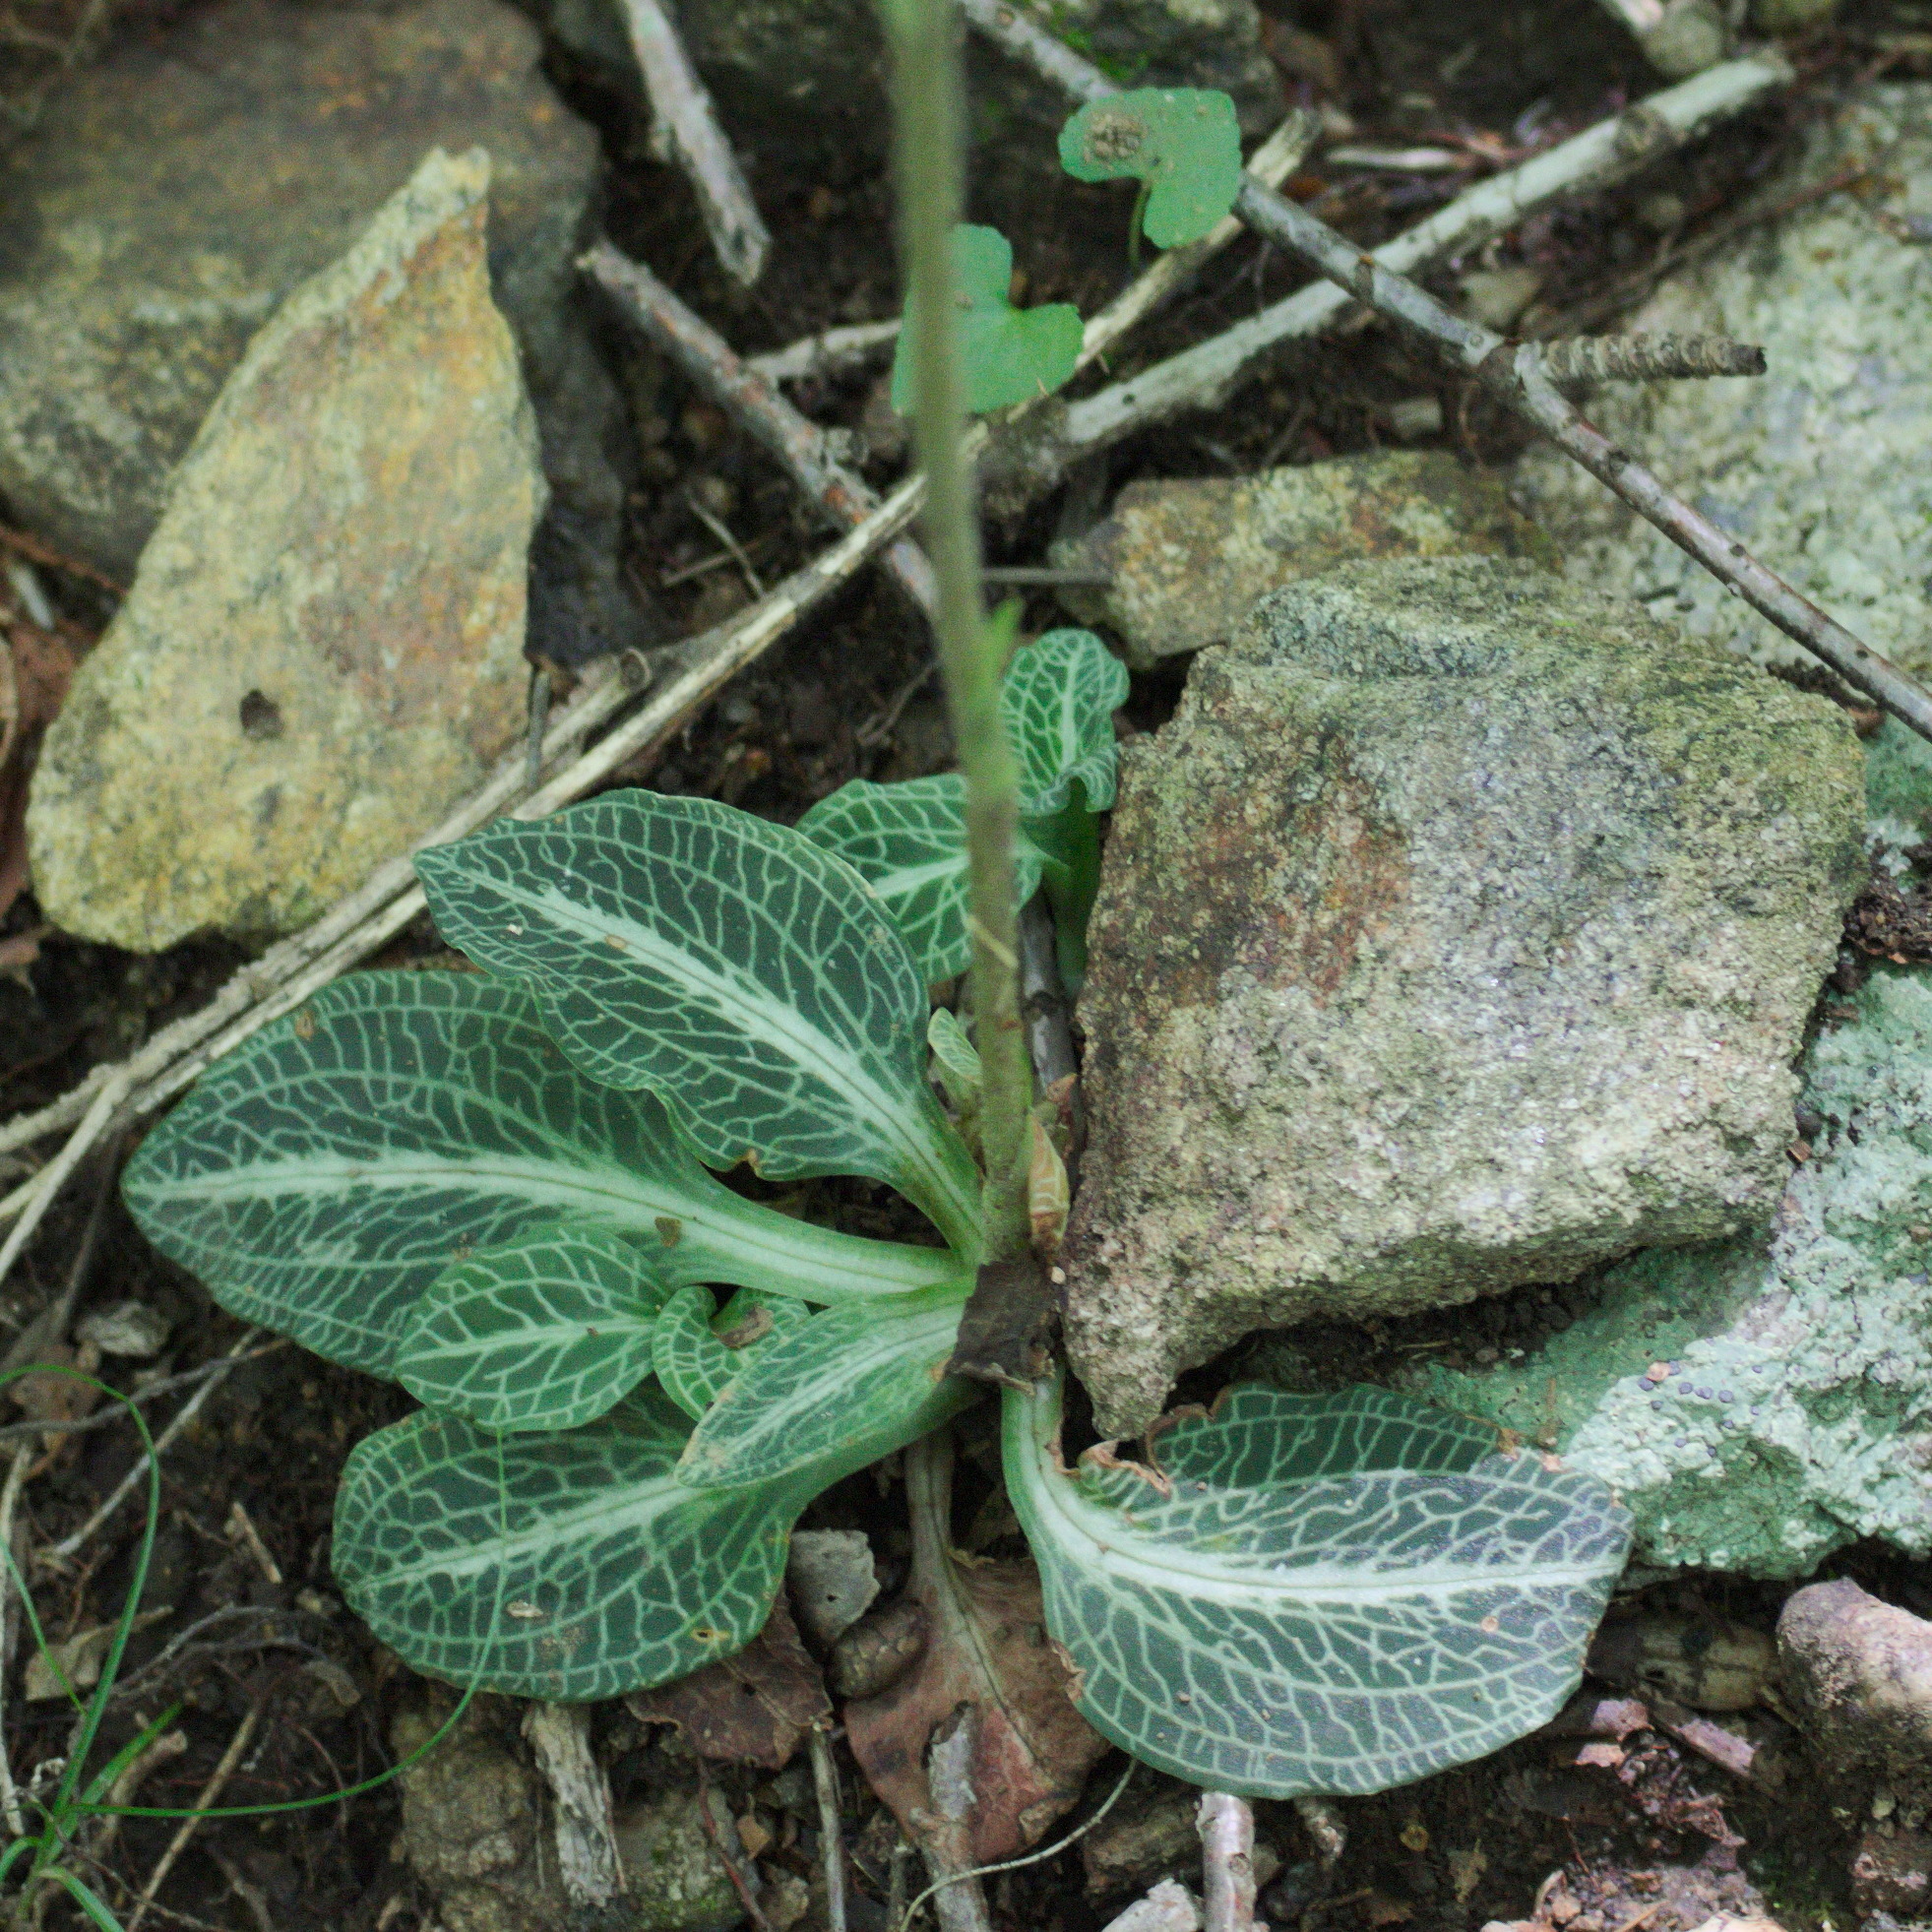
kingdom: Plantae
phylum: Tracheophyta
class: Liliopsida
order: Asparagales
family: Orchidaceae
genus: Goodyera
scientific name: Goodyera pubescens
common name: Downy rattlesnake-plantain
